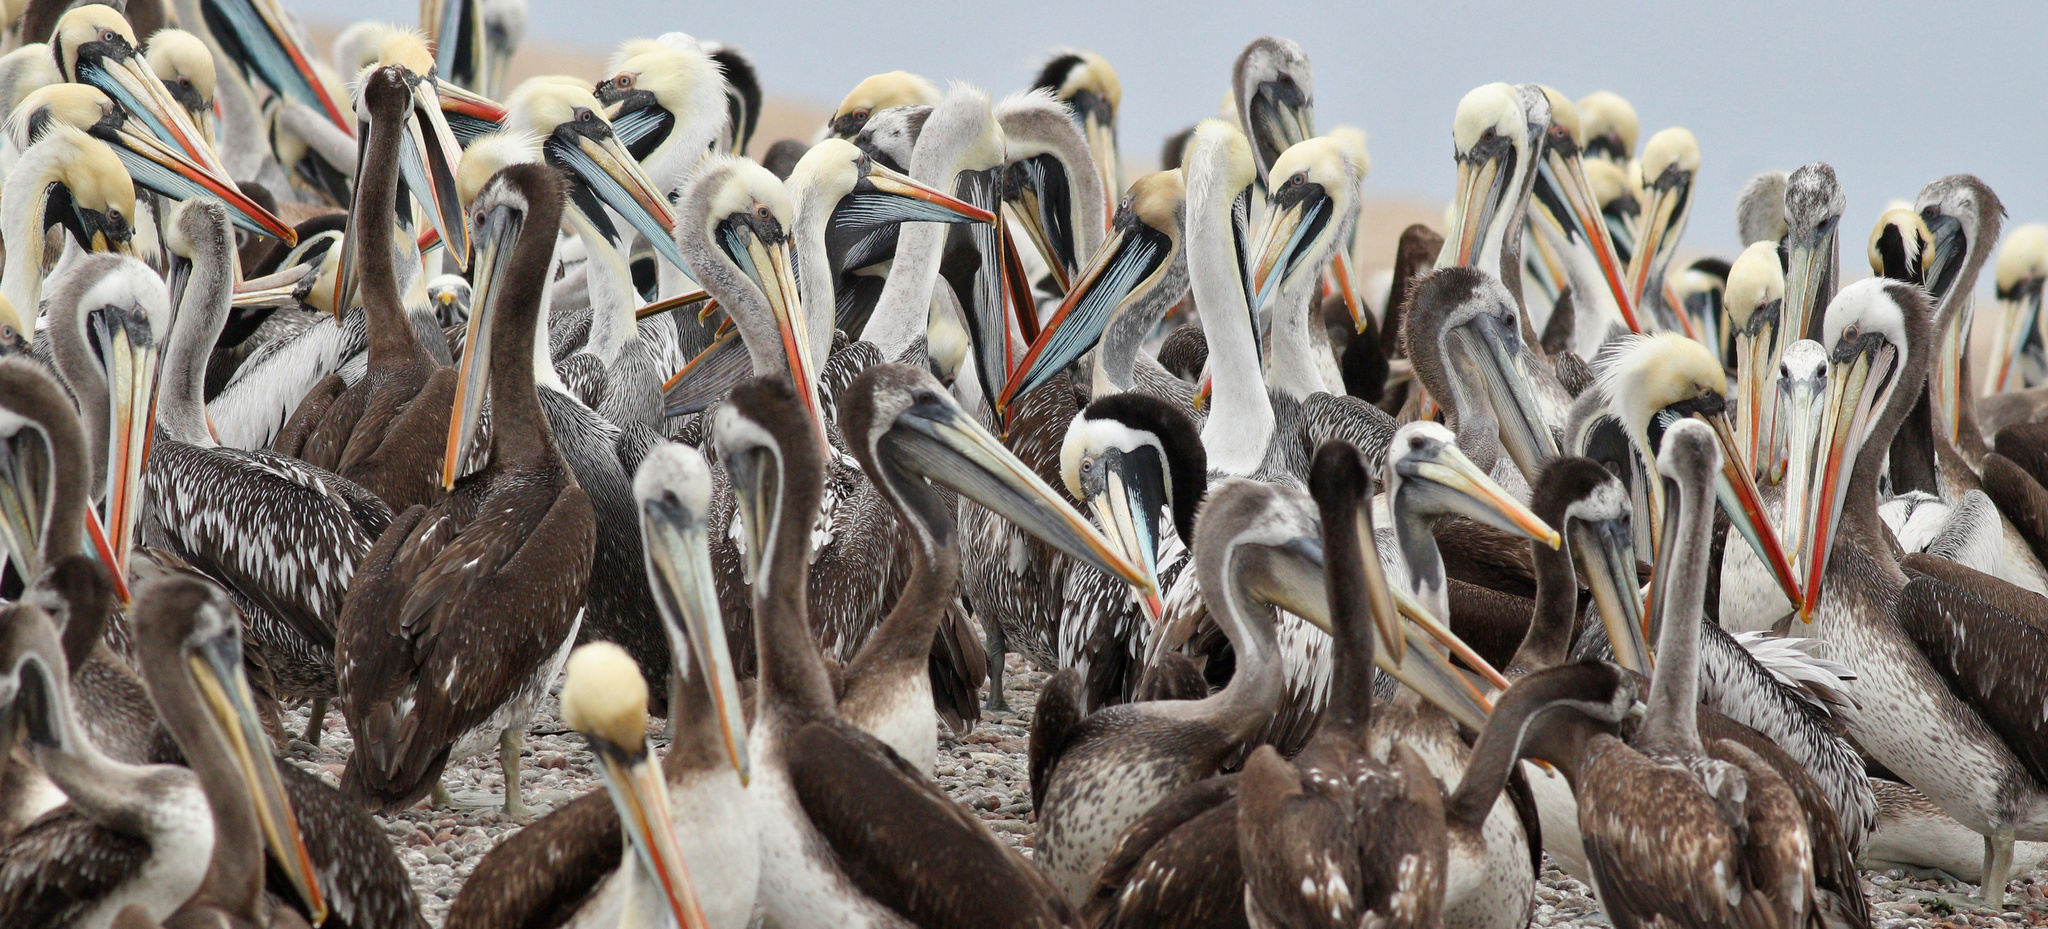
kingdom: Animalia
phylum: Chordata
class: Aves
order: Pelecaniformes
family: Pelecanidae
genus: Pelecanus
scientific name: Pelecanus thagus
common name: Peruvian pelican
